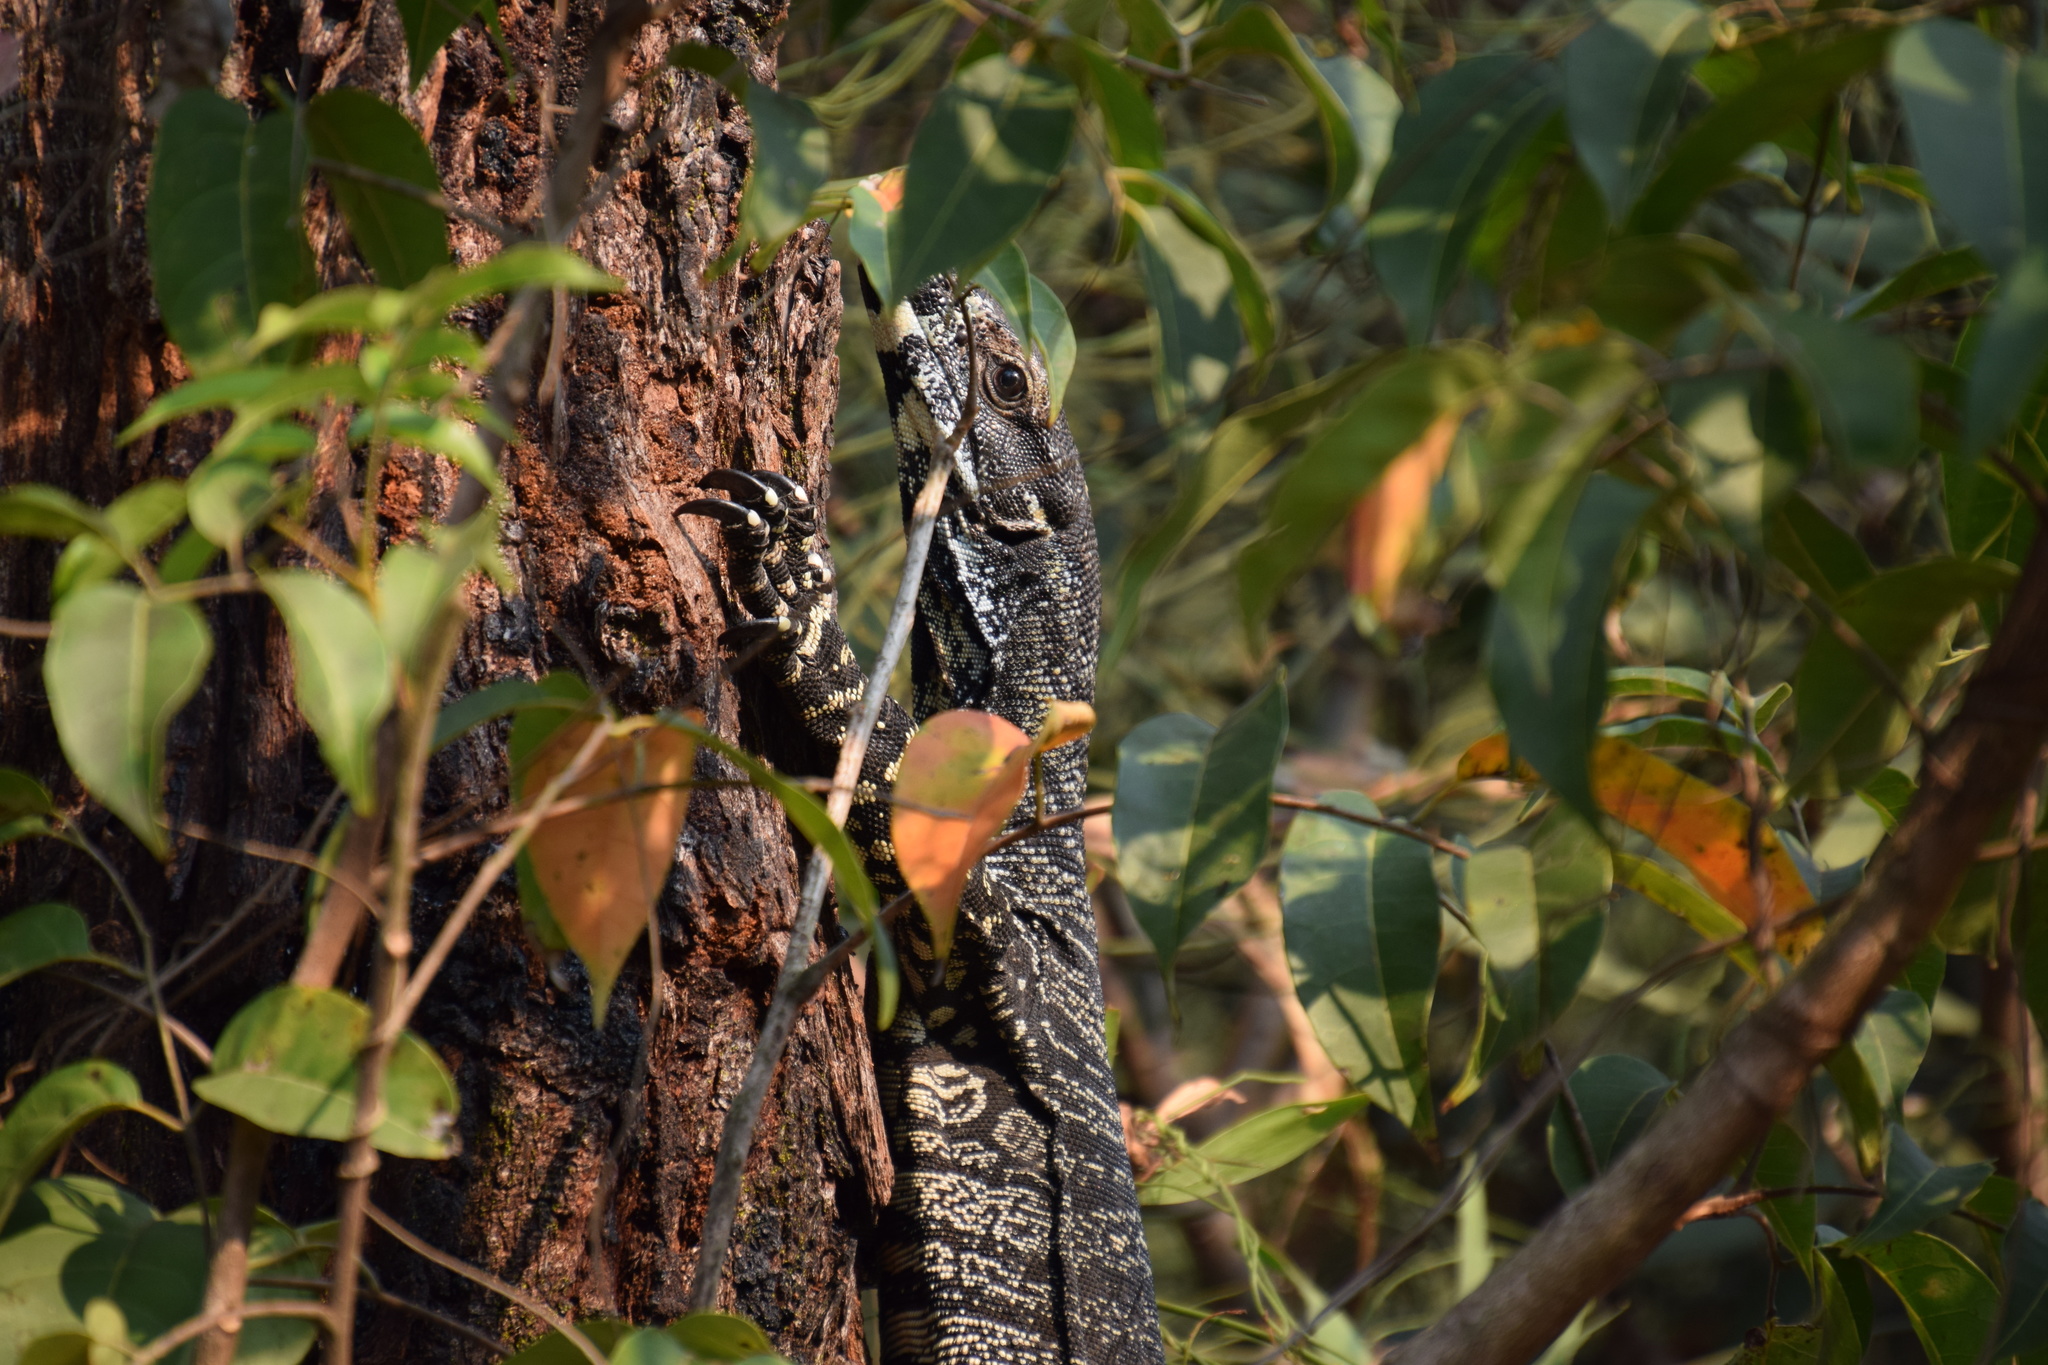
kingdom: Animalia
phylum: Chordata
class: Squamata
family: Varanidae
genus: Varanus
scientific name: Varanus varius
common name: Lace monitor
